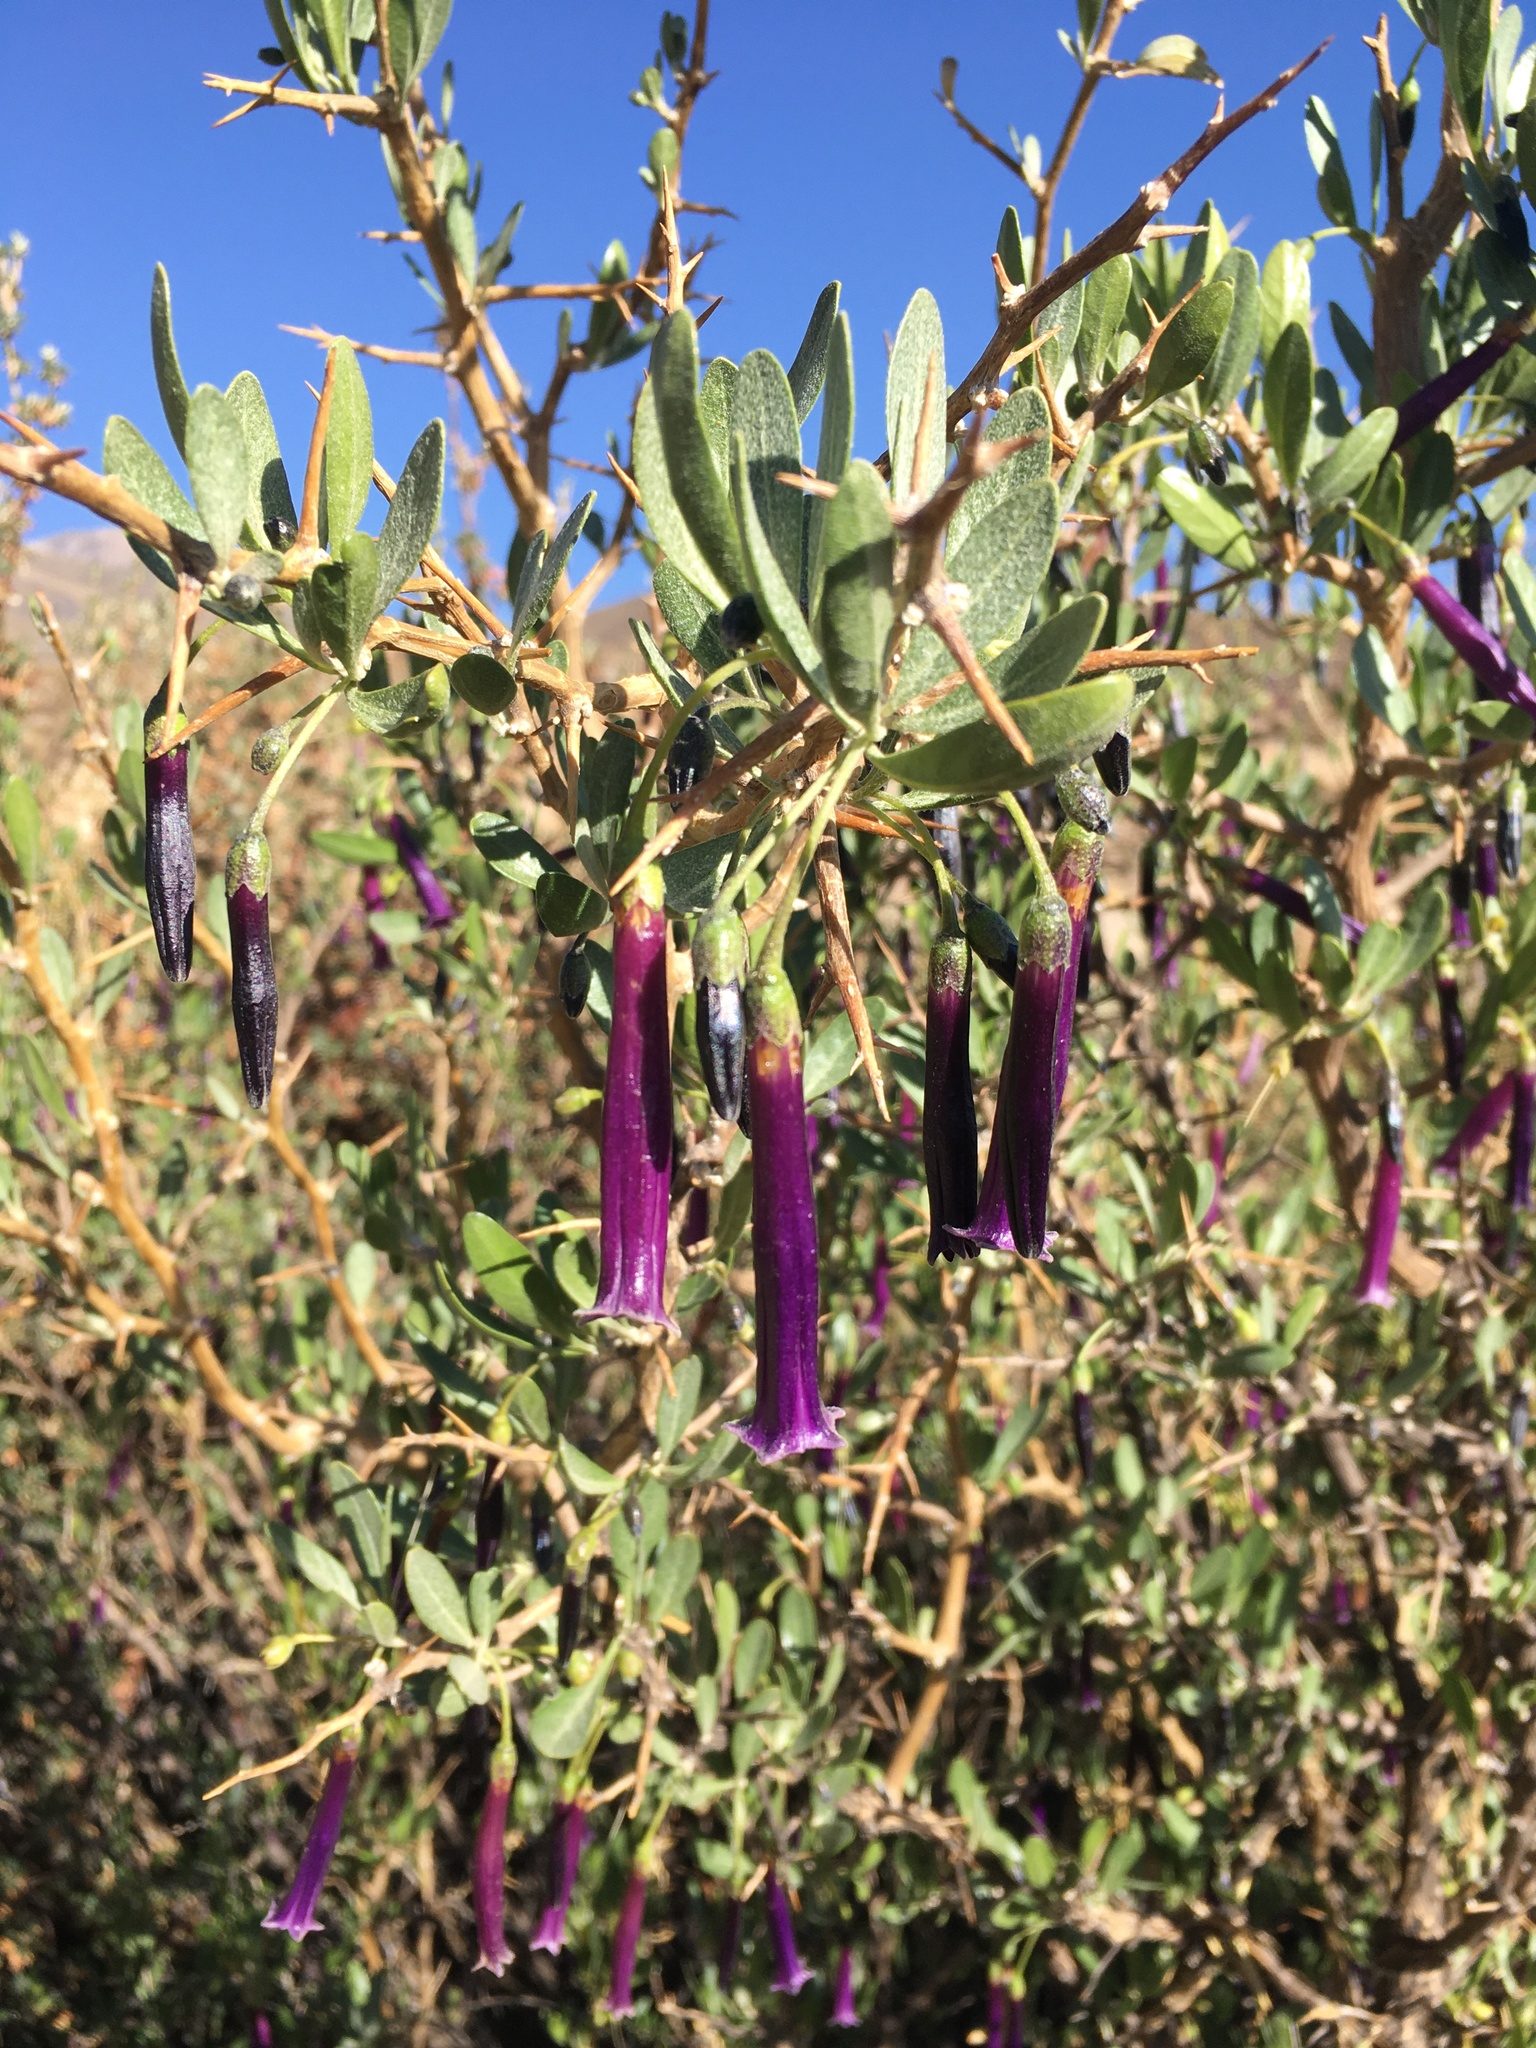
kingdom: Plantae
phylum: Tracheophyta
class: Magnoliopsida
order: Solanales
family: Solanaceae
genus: Dunalia
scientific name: Dunalia spinosa
